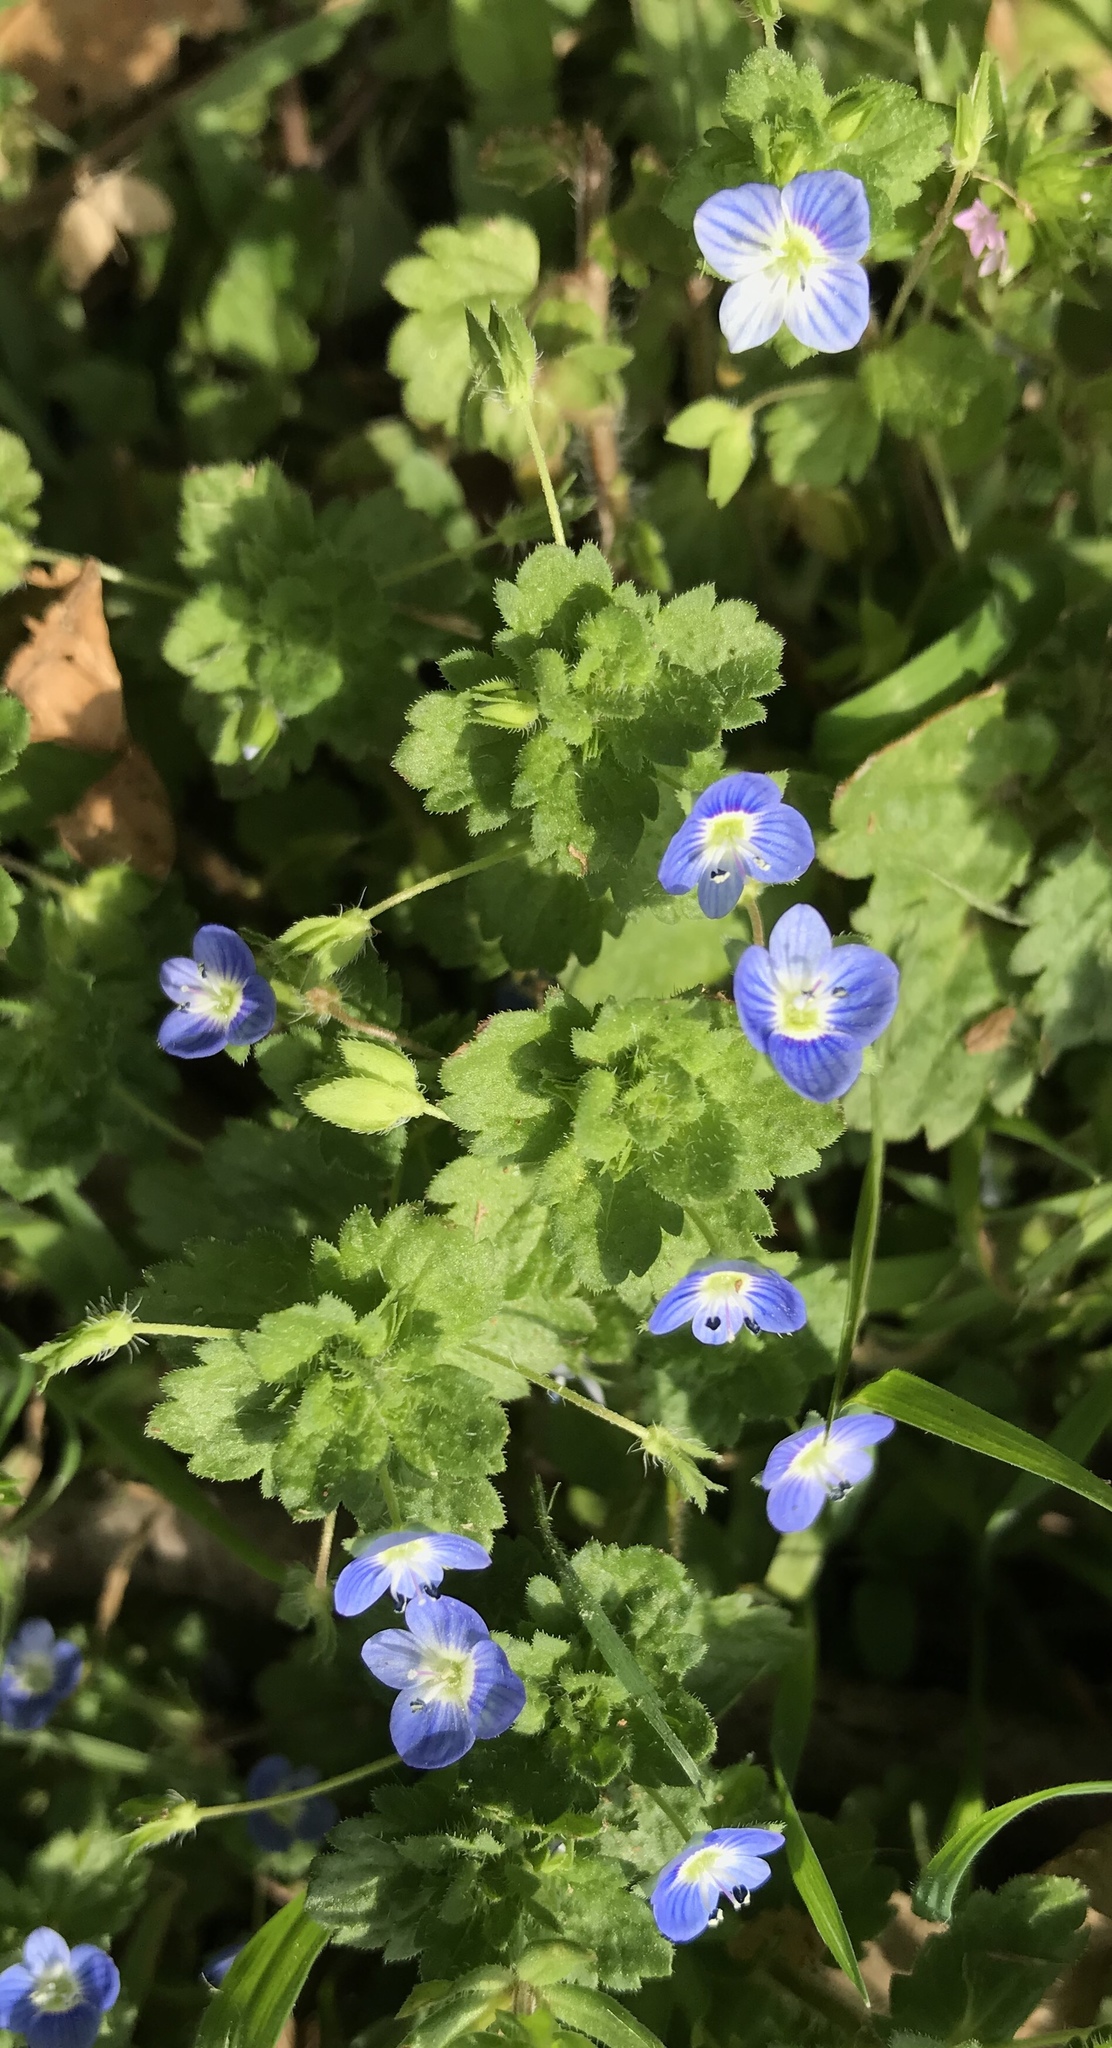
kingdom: Plantae
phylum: Tracheophyta
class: Magnoliopsida
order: Lamiales
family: Plantaginaceae
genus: Veronica
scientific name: Veronica persica
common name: Common field-speedwell
